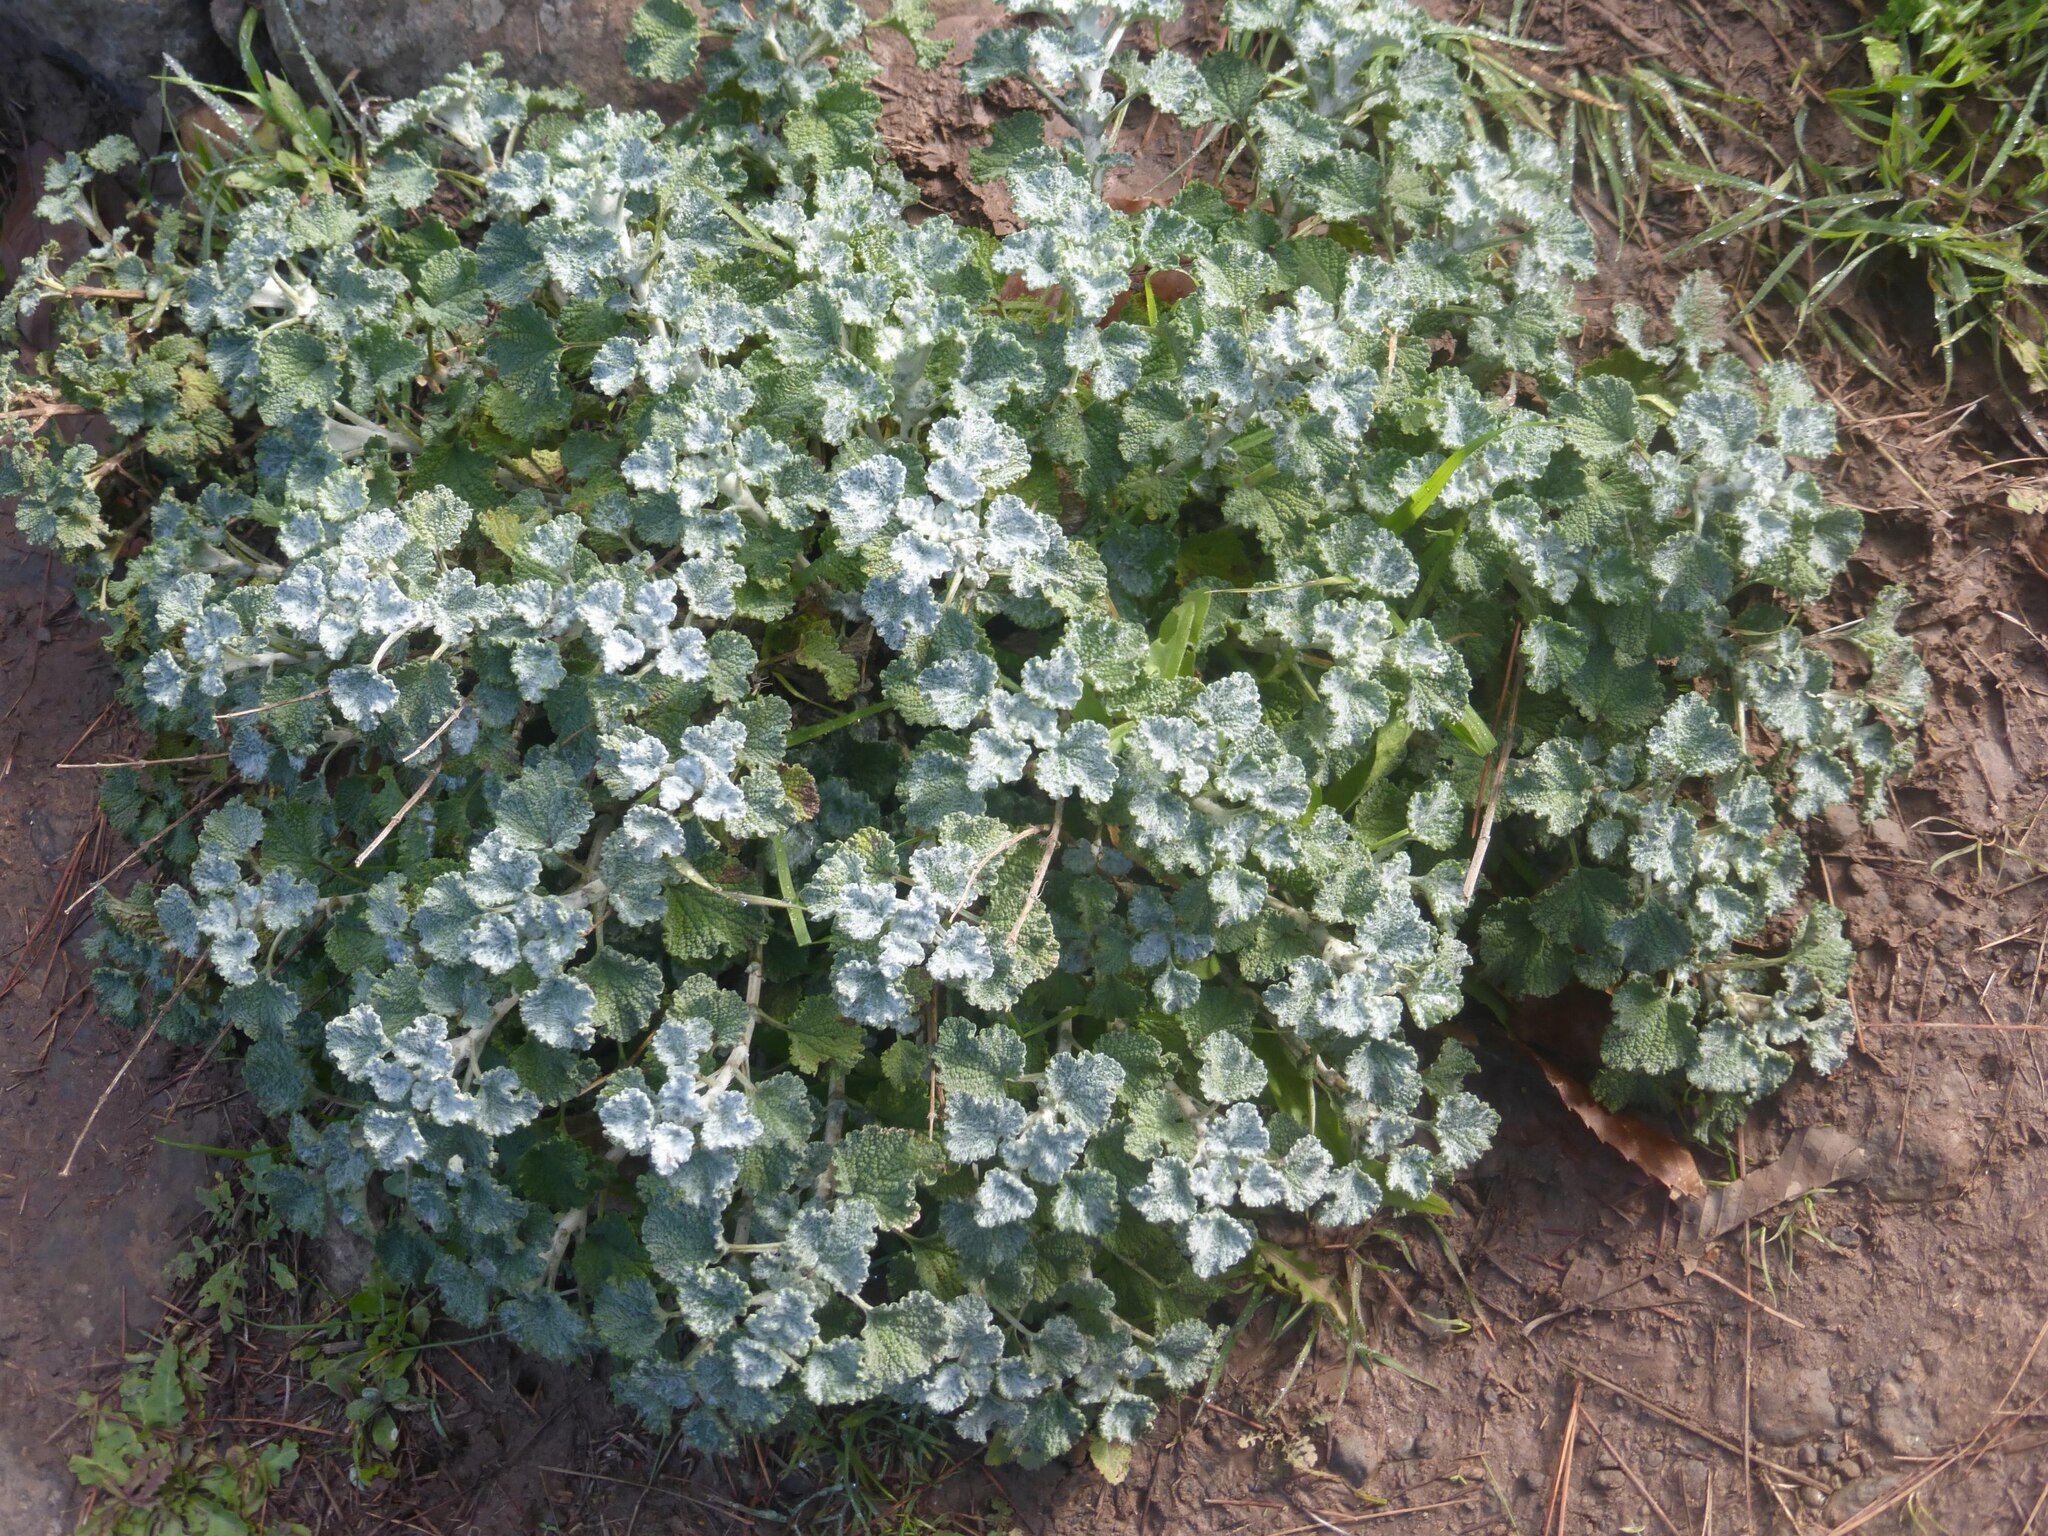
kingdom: Plantae
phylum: Tracheophyta
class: Magnoliopsida
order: Lamiales
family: Lamiaceae
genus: Marrubium
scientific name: Marrubium vulgare
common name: Horehound
